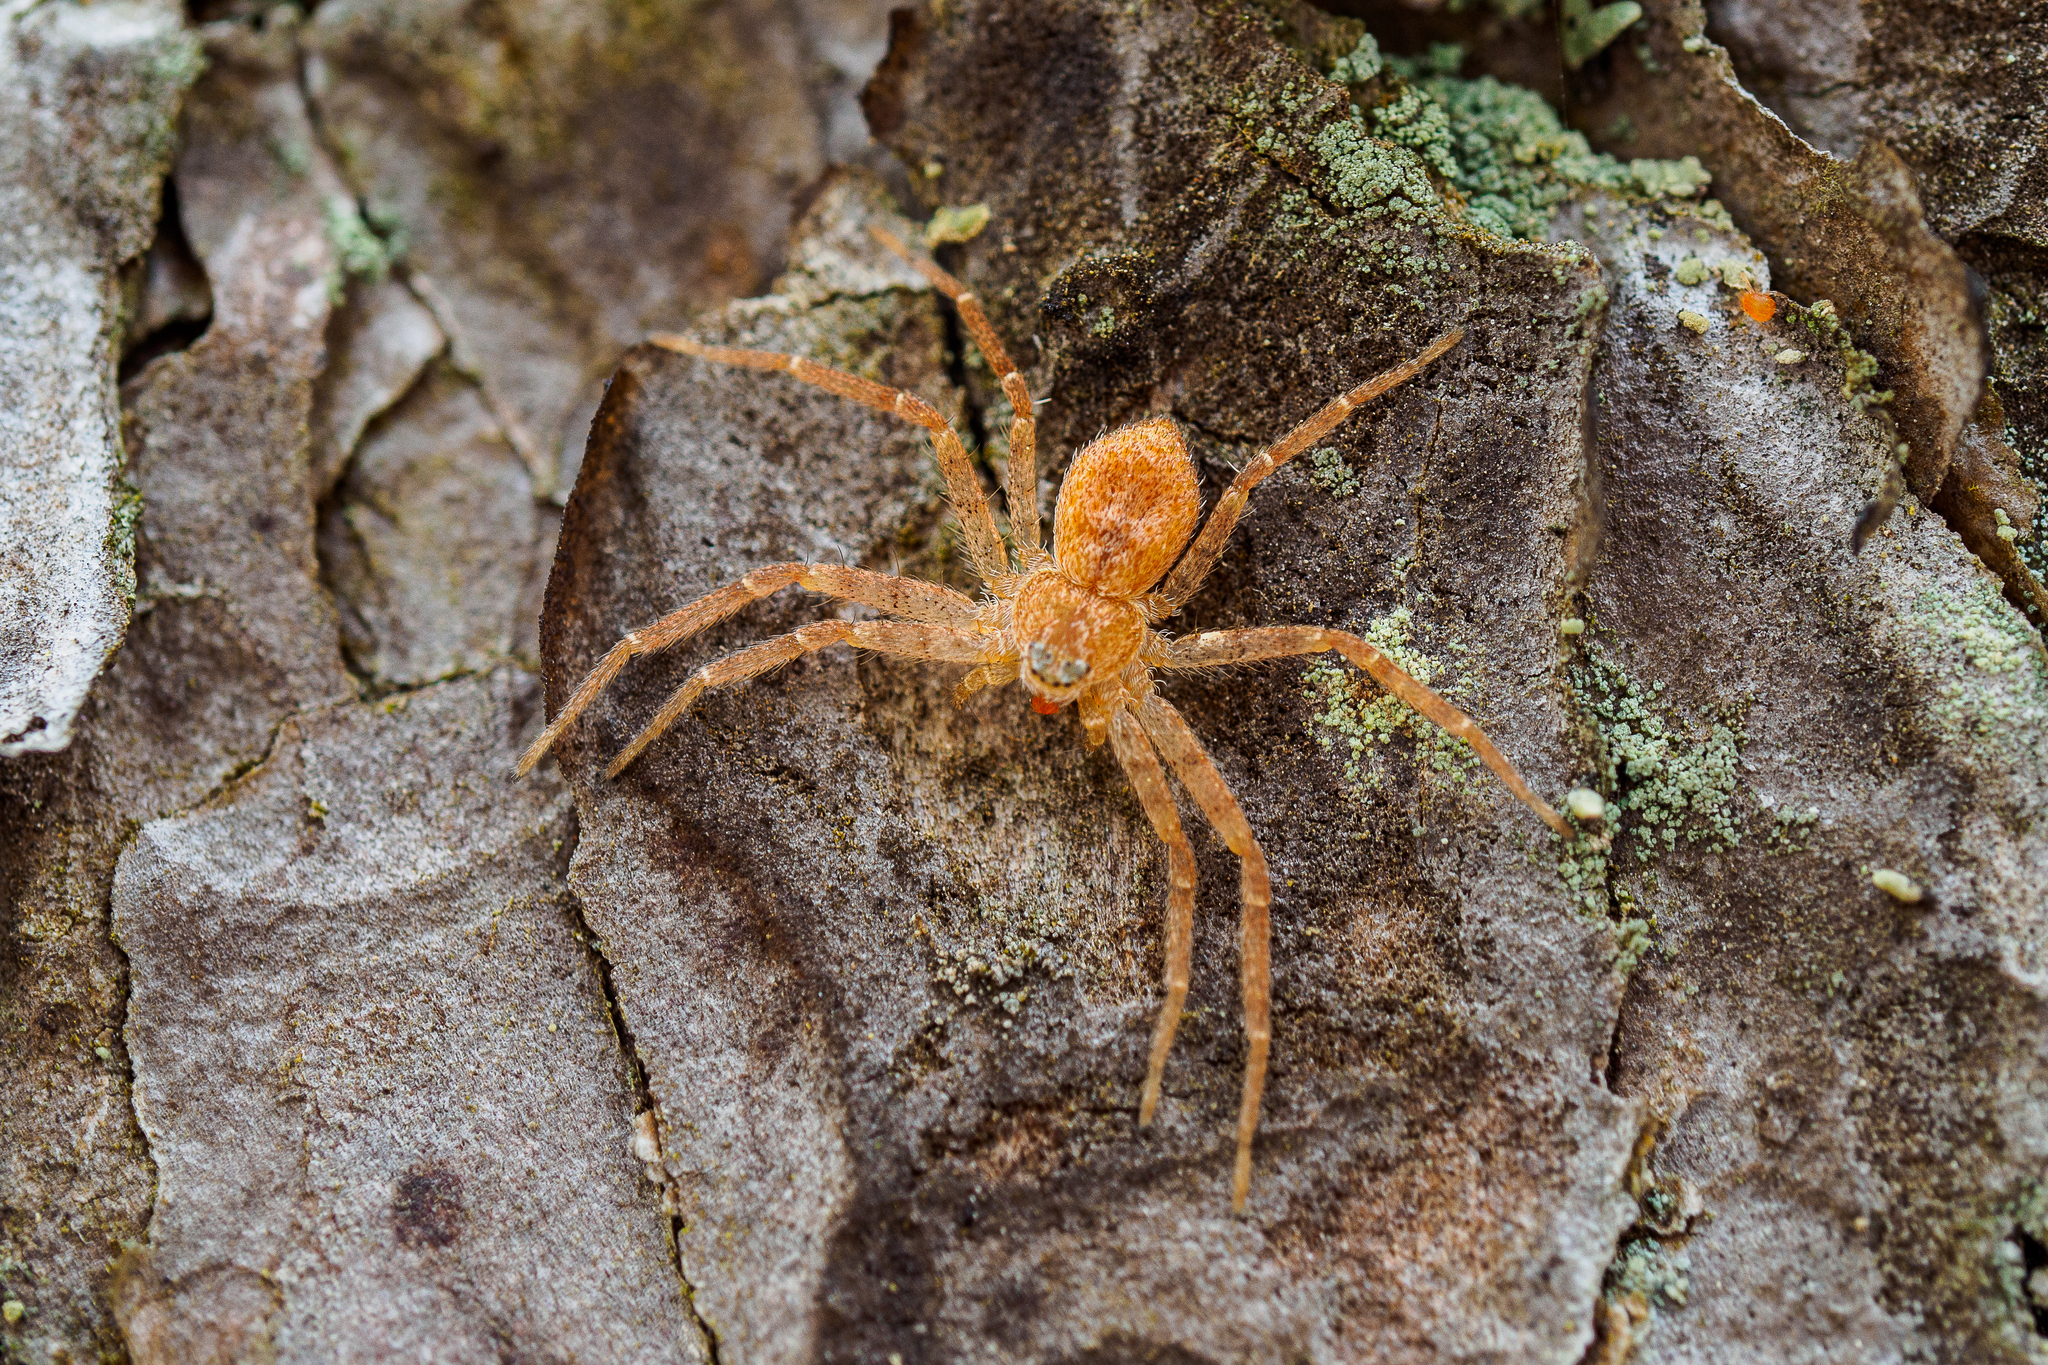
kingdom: Animalia
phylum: Arthropoda
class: Arachnida
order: Araneae
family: Philodromidae
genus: Philodromus
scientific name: Philodromus fuscomarginatus
